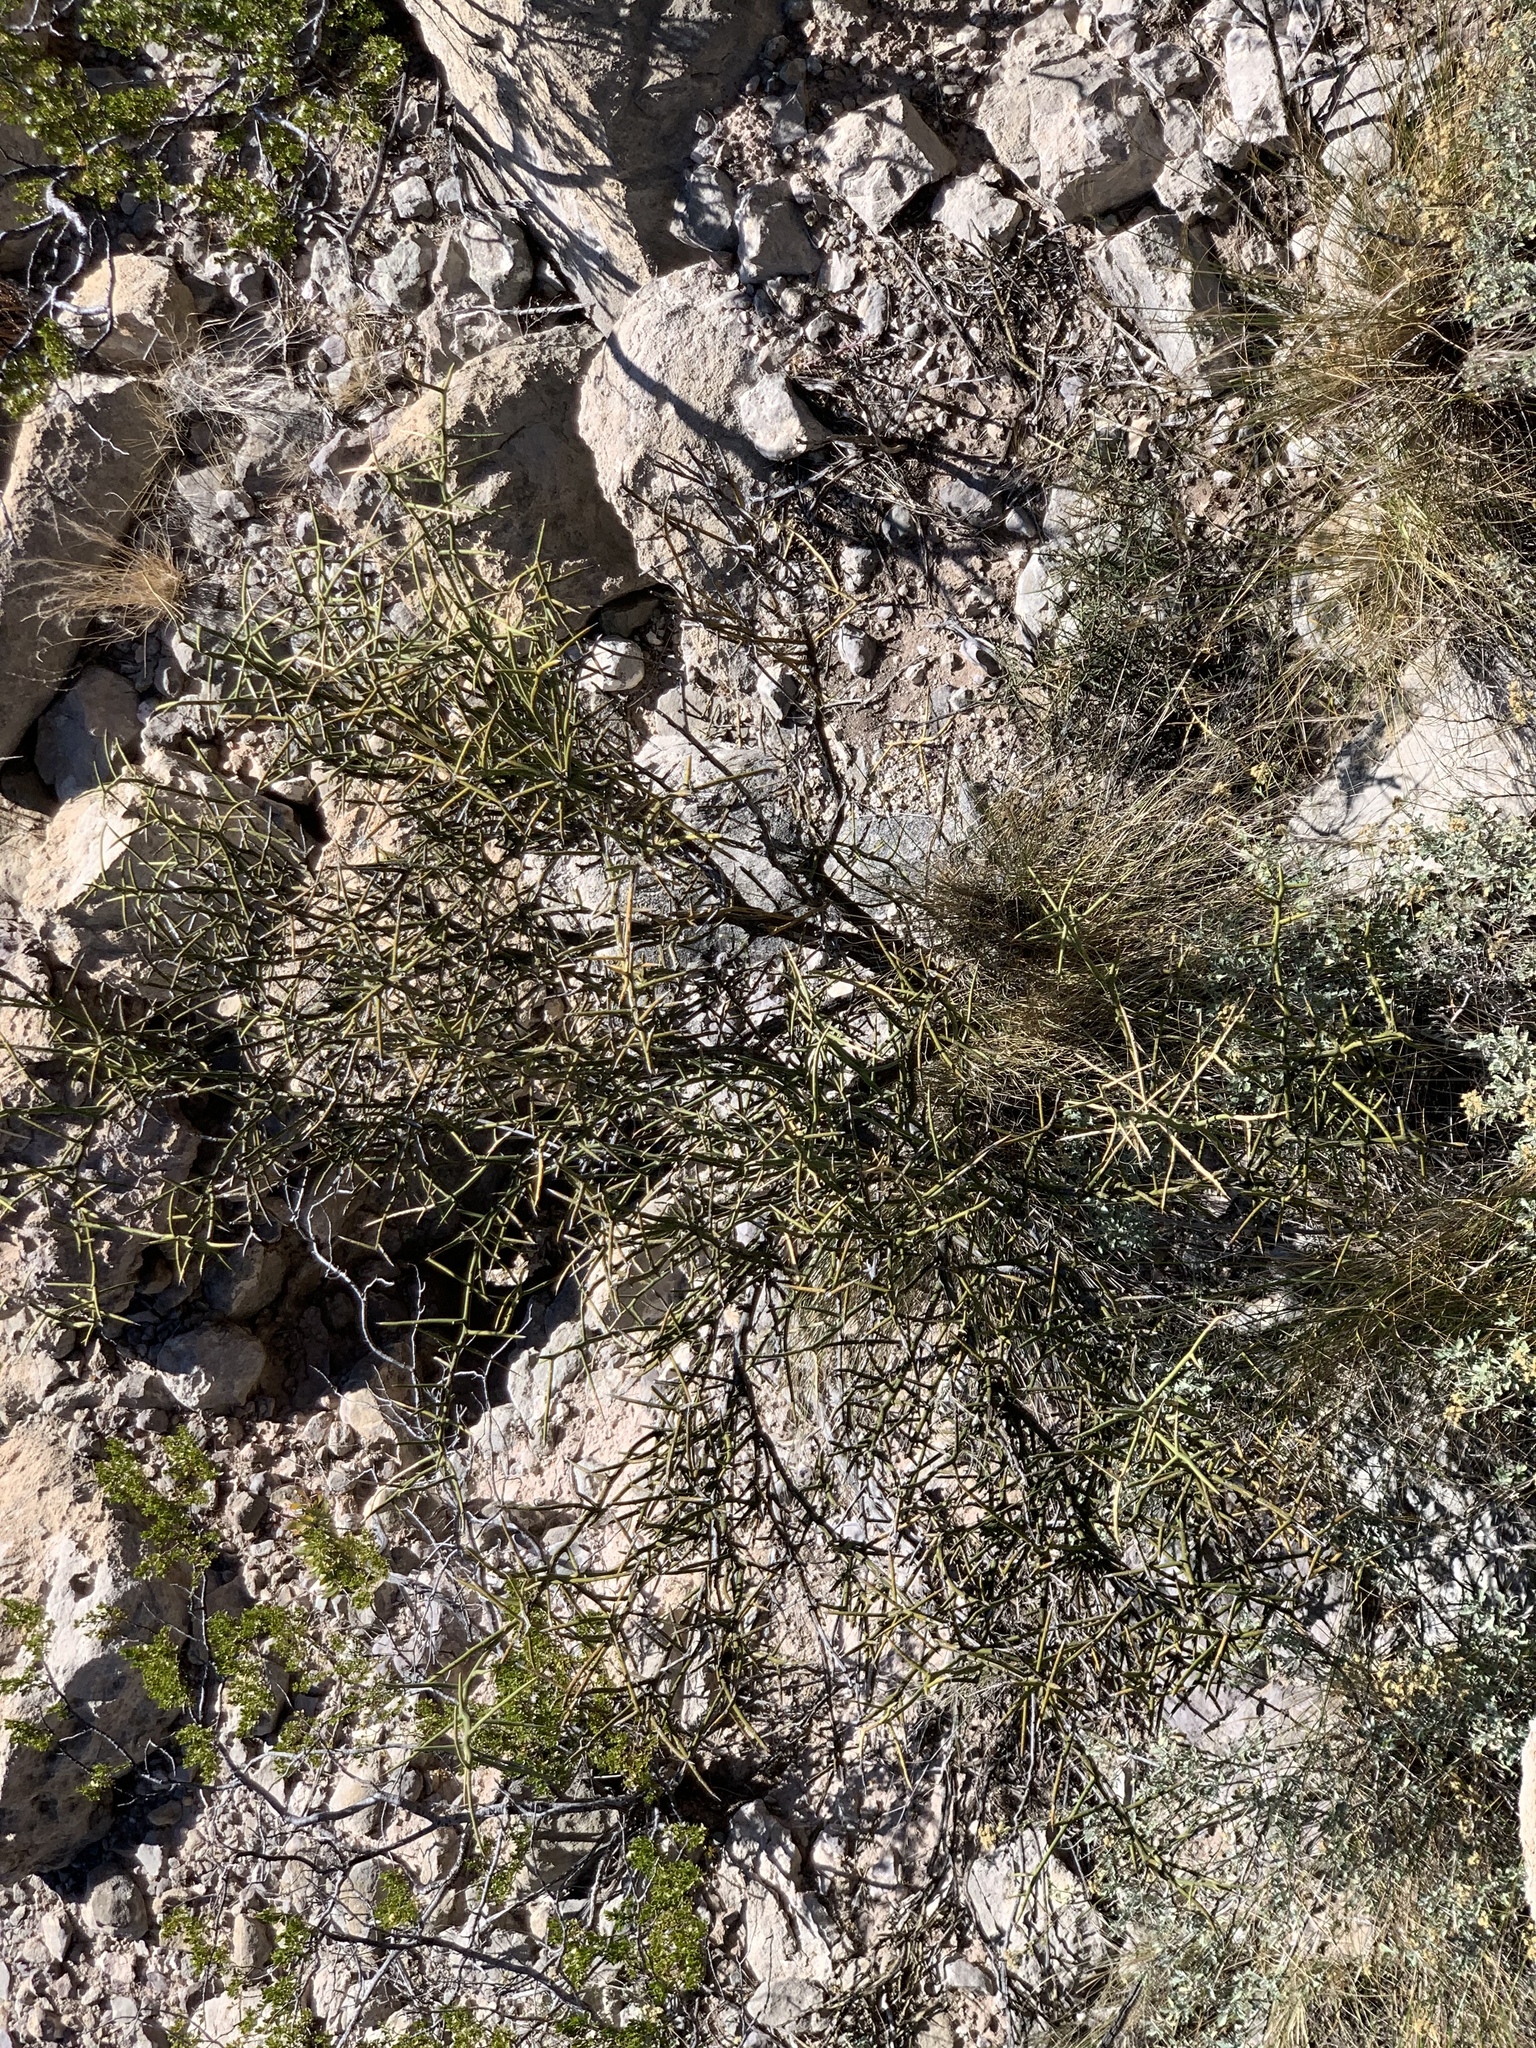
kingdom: Plantae
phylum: Tracheophyta
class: Magnoliopsida
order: Brassicales
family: Koeberliniaceae
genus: Koeberlinia
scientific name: Koeberlinia spinosa
